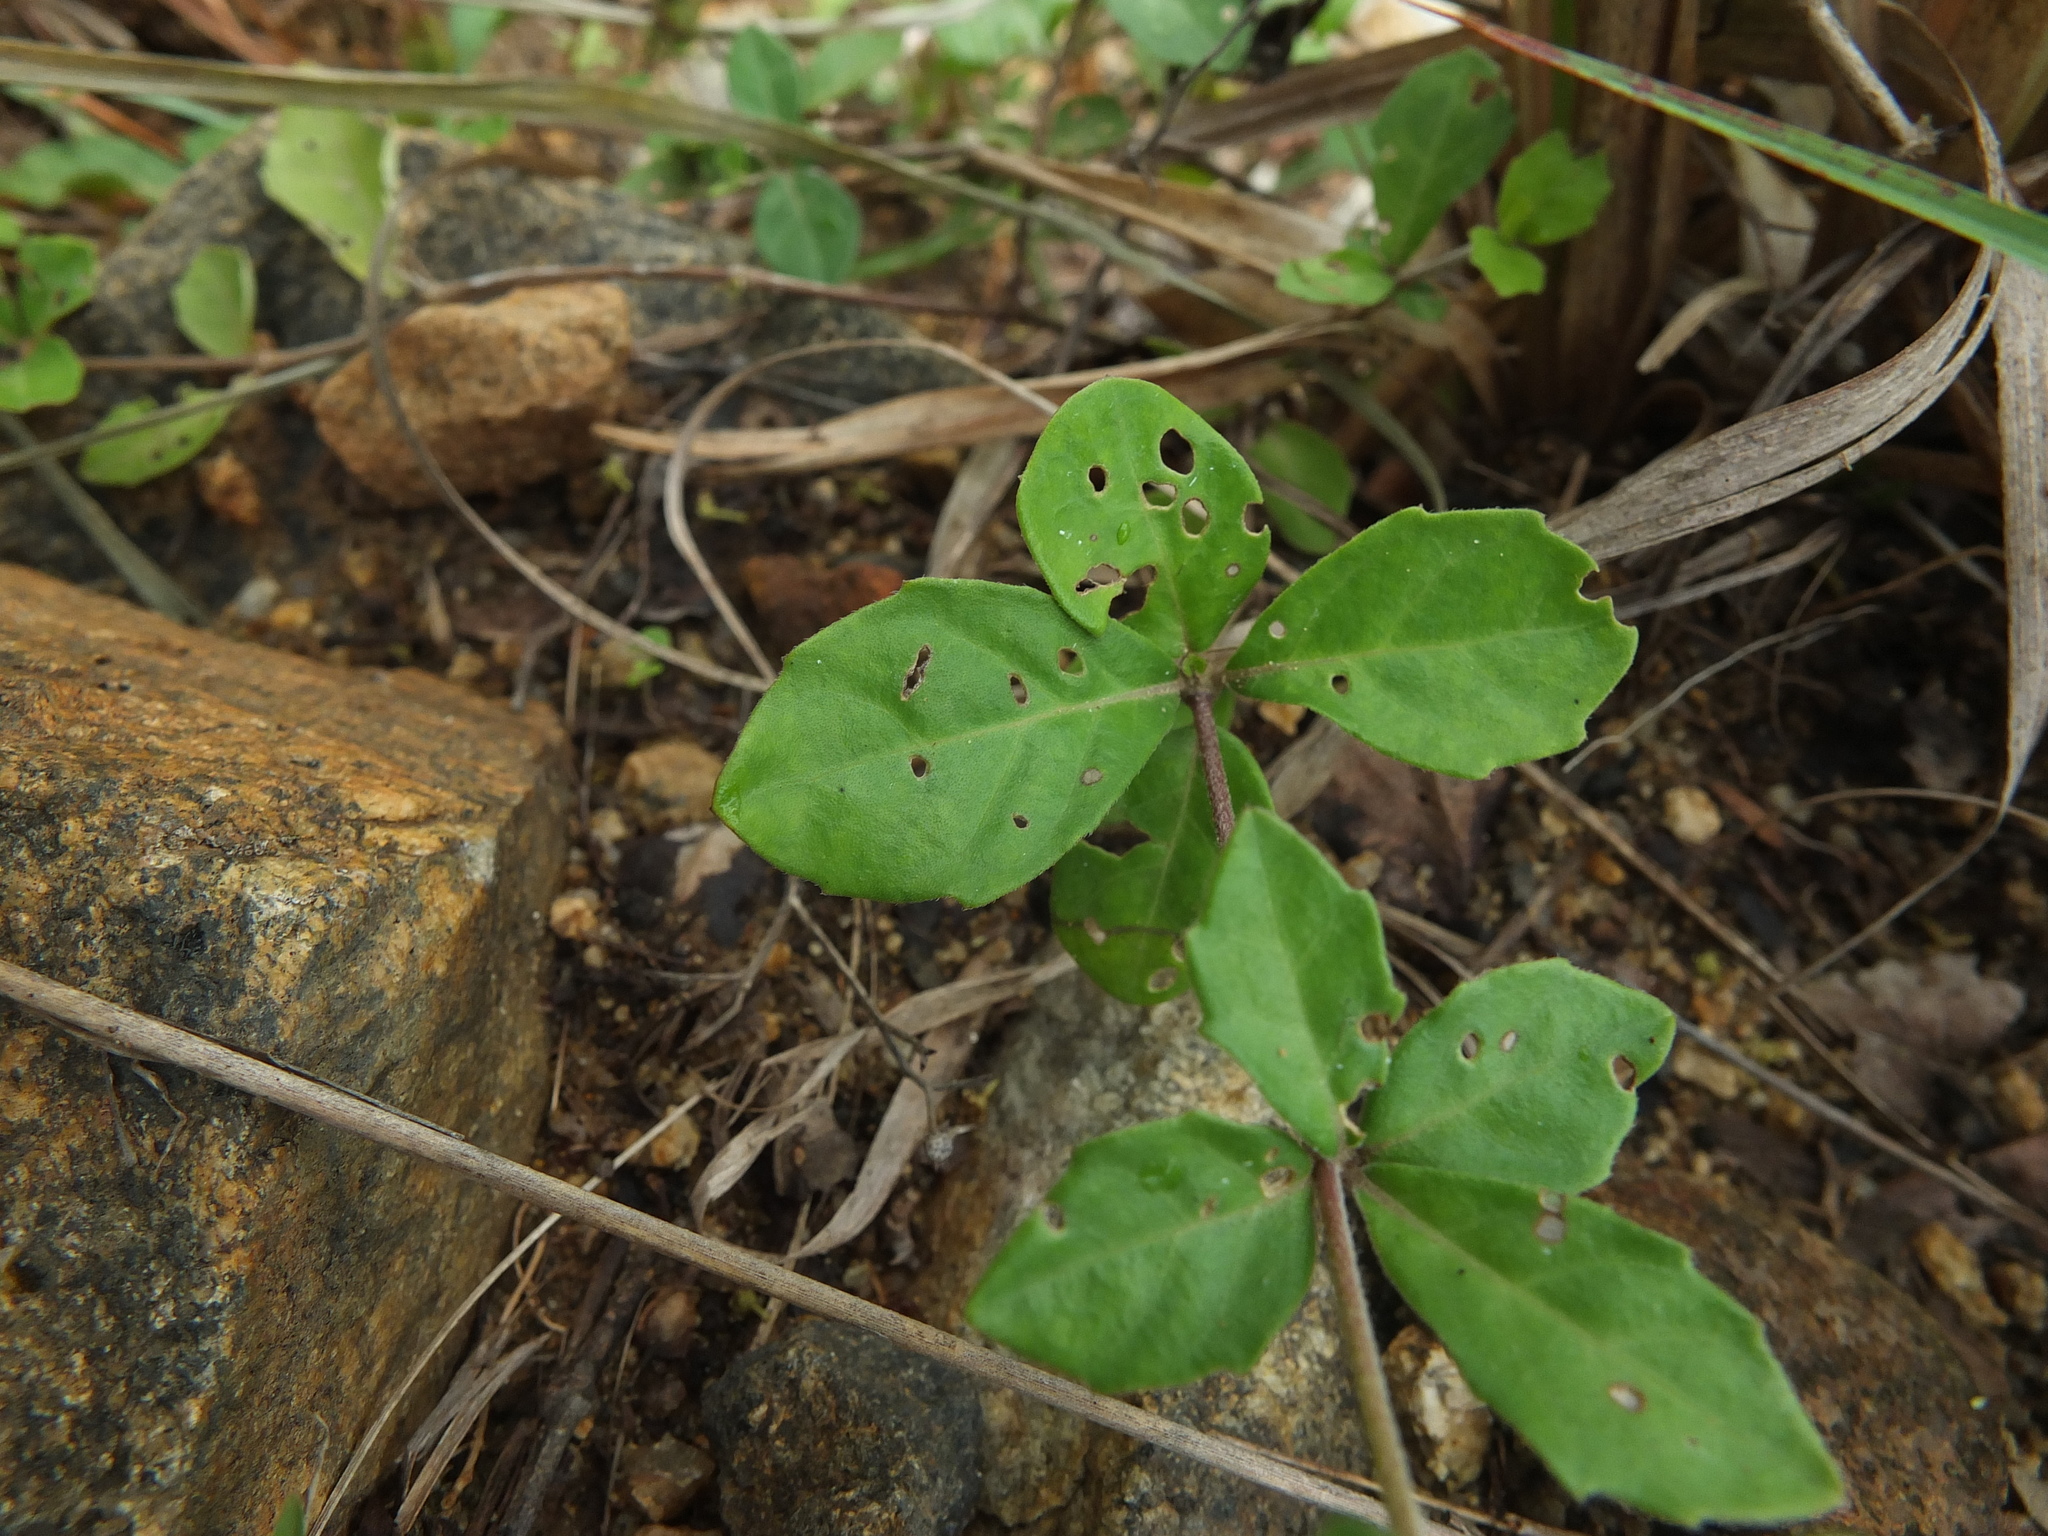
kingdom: Plantae
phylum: Tracheophyta
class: Magnoliopsida
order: Lamiales
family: Acanthaceae
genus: Blepharis
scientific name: Blepharis maderaspatensis
